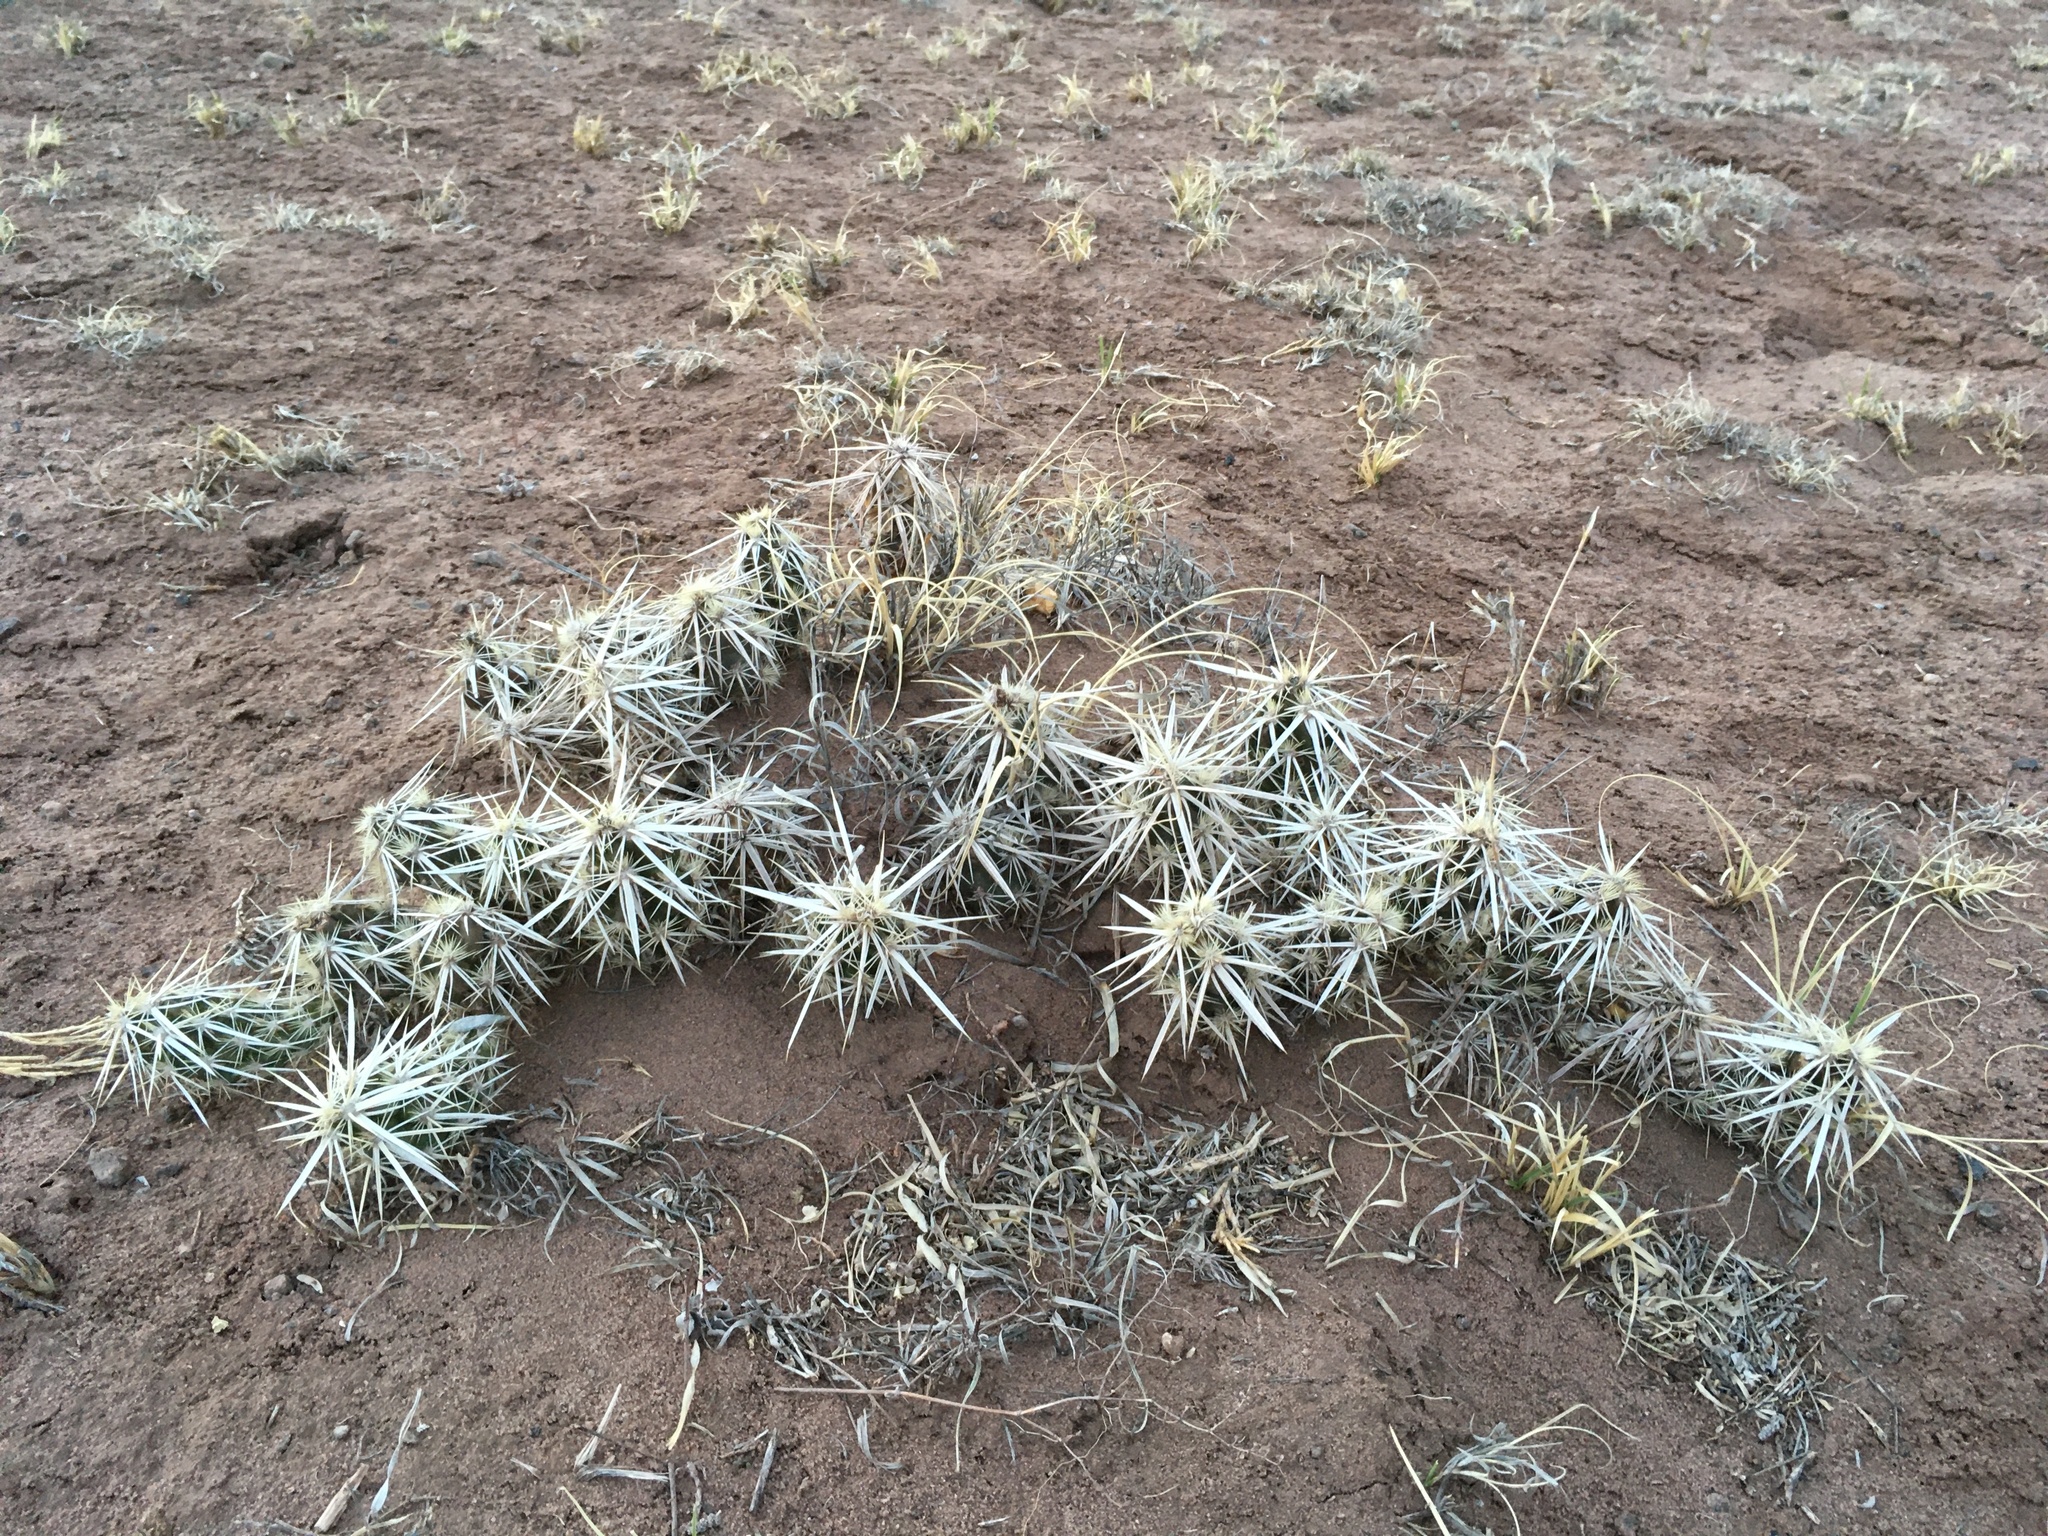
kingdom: Plantae
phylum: Tracheophyta
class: Magnoliopsida
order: Caryophyllales
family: Cactaceae
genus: Grusonia
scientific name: Grusonia clavata
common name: Club cholla
